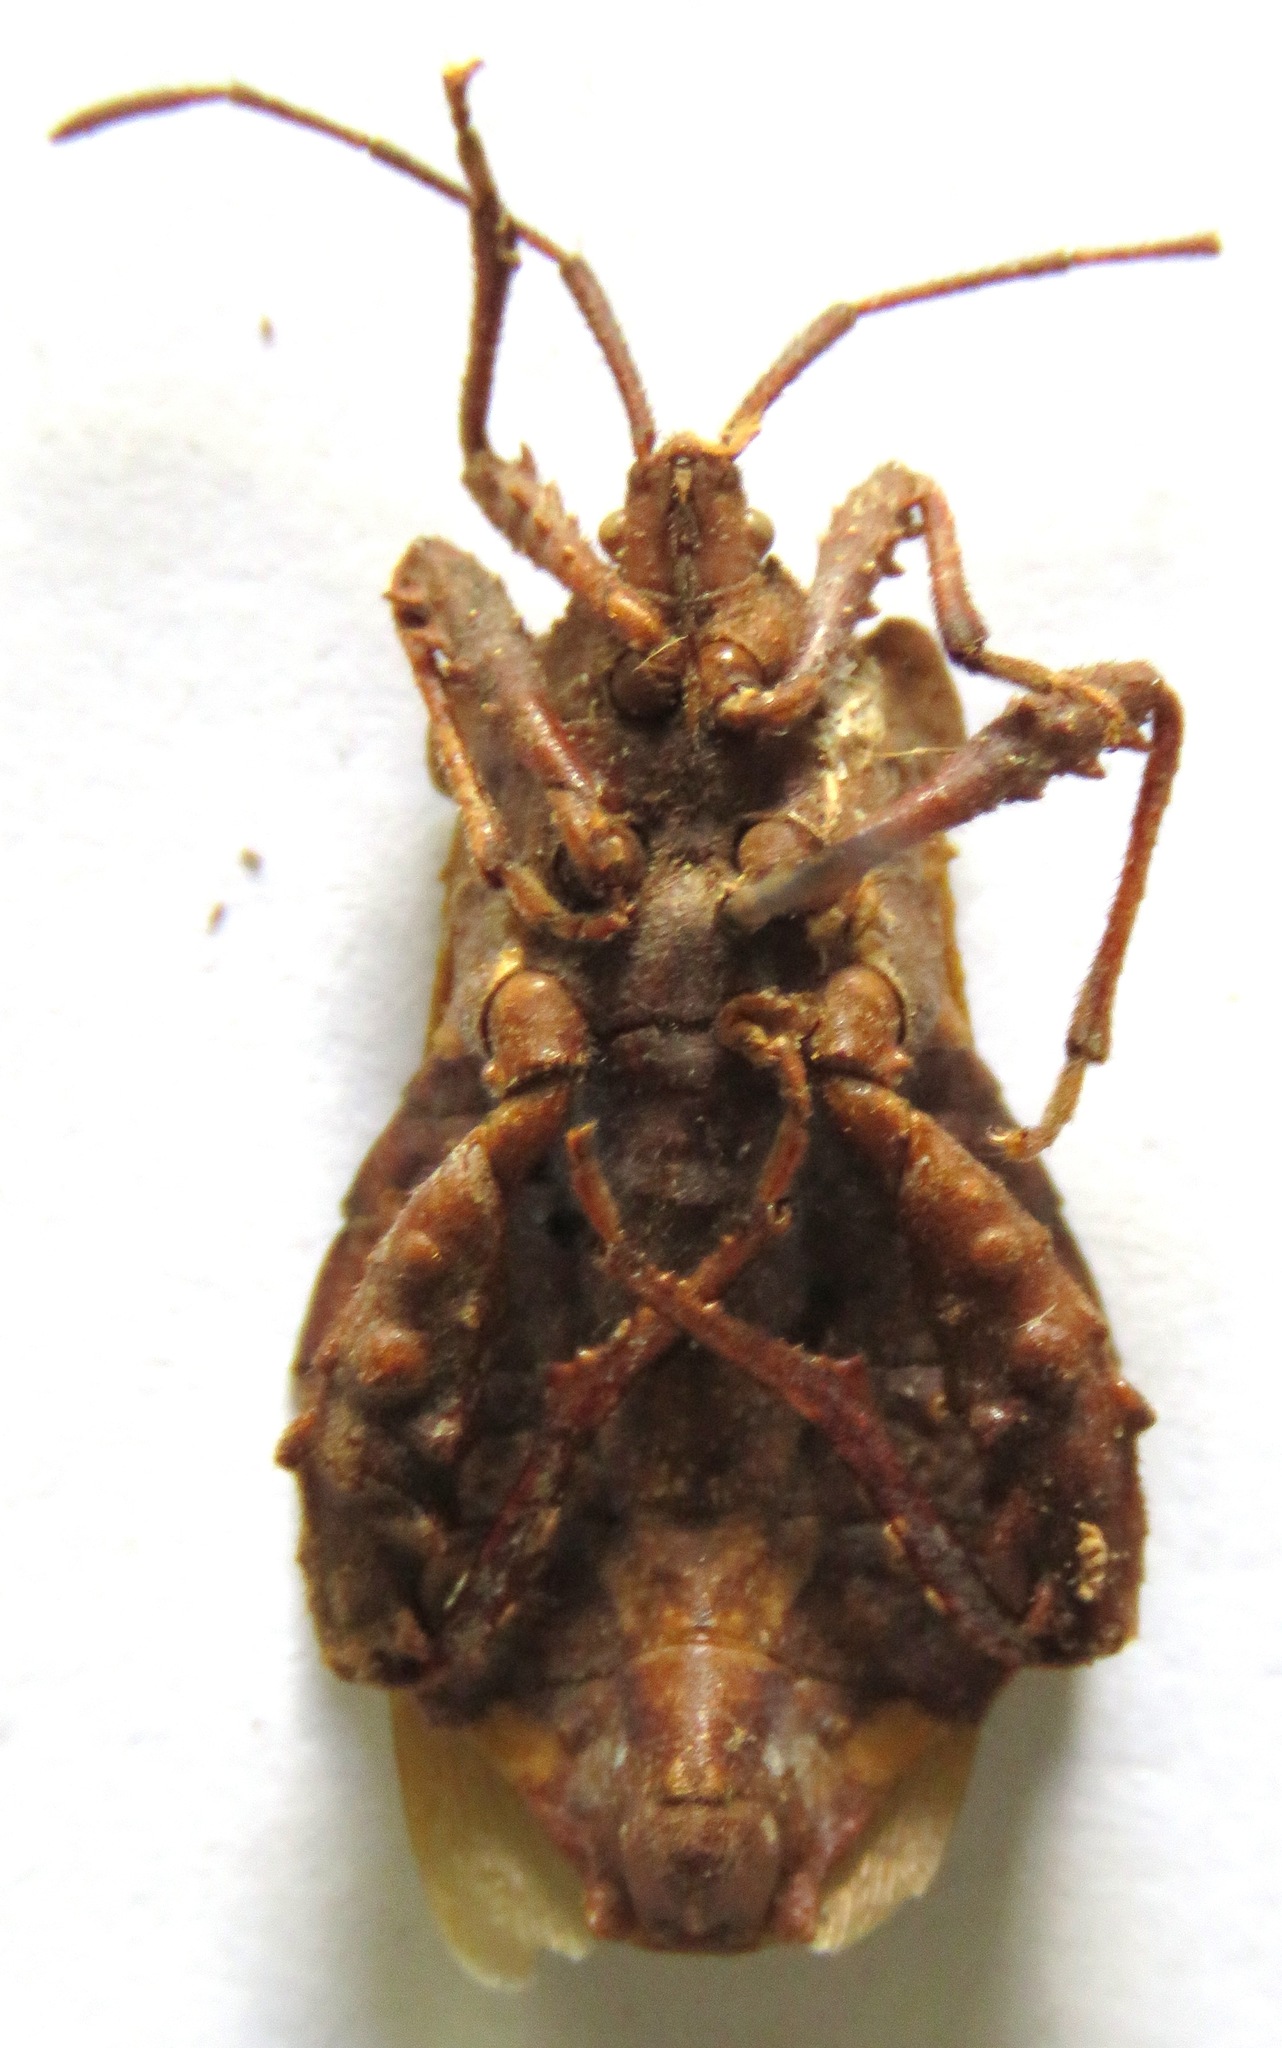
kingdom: Animalia
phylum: Arthropoda
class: Insecta
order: Hemiptera
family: Coreidae
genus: Piezogaster
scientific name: Piezogaster auriculatus
